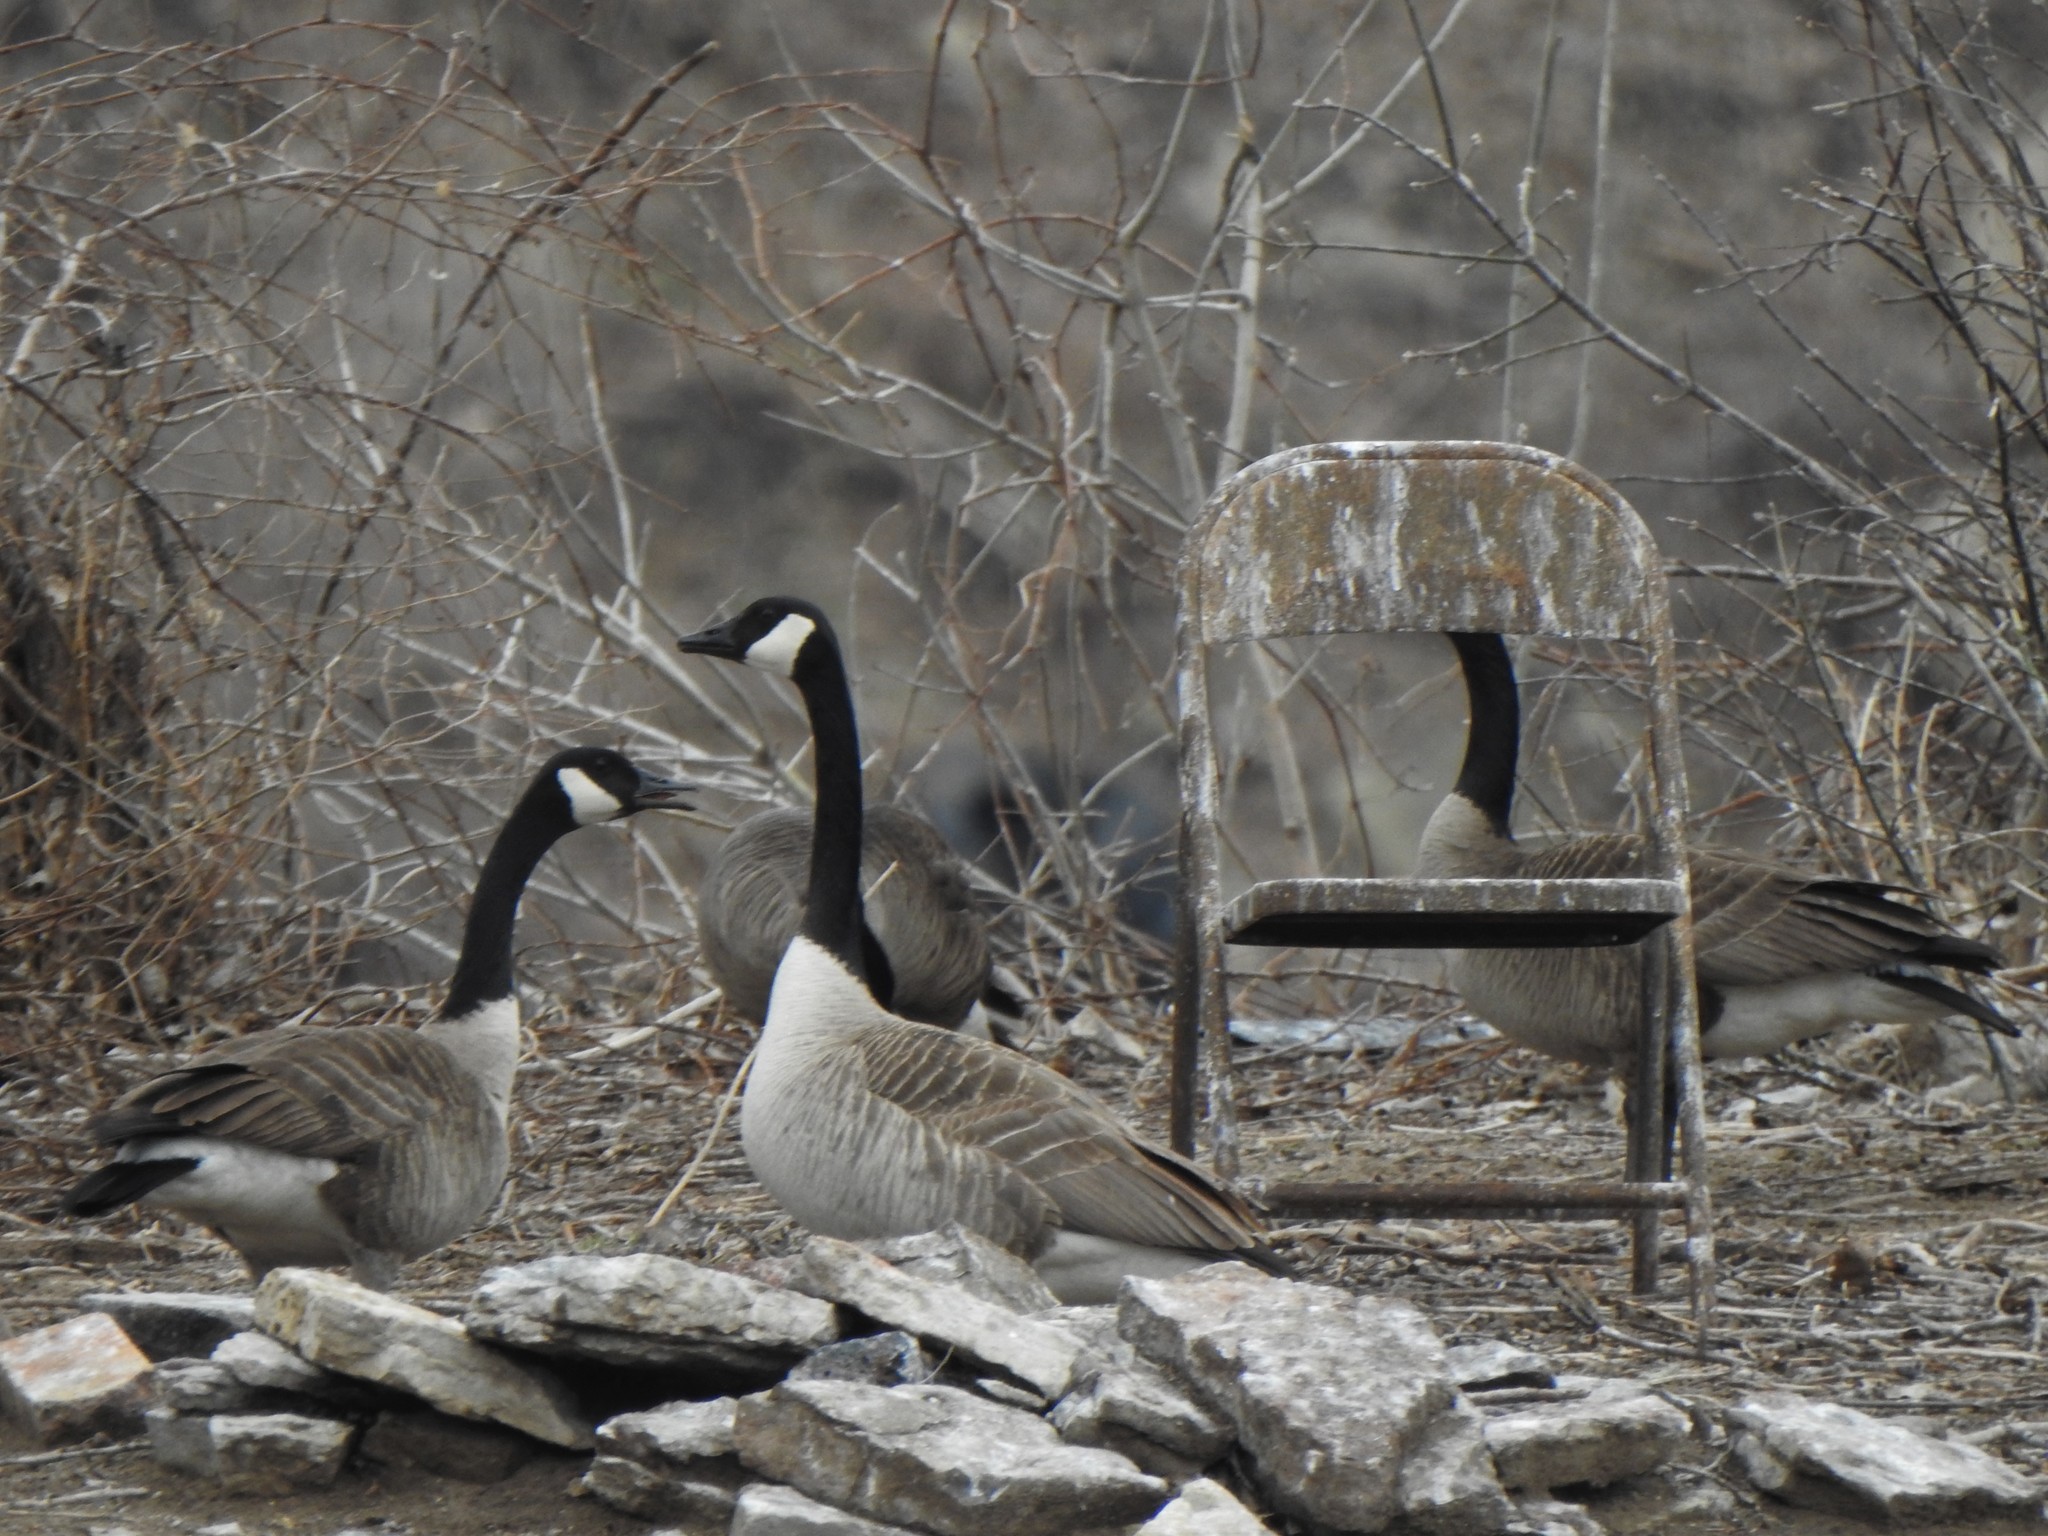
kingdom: Animalia
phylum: Chordata
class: Aves
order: Anseriformes
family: Anatidae
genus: Branta
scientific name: Branta canadensis
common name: Canada goose
